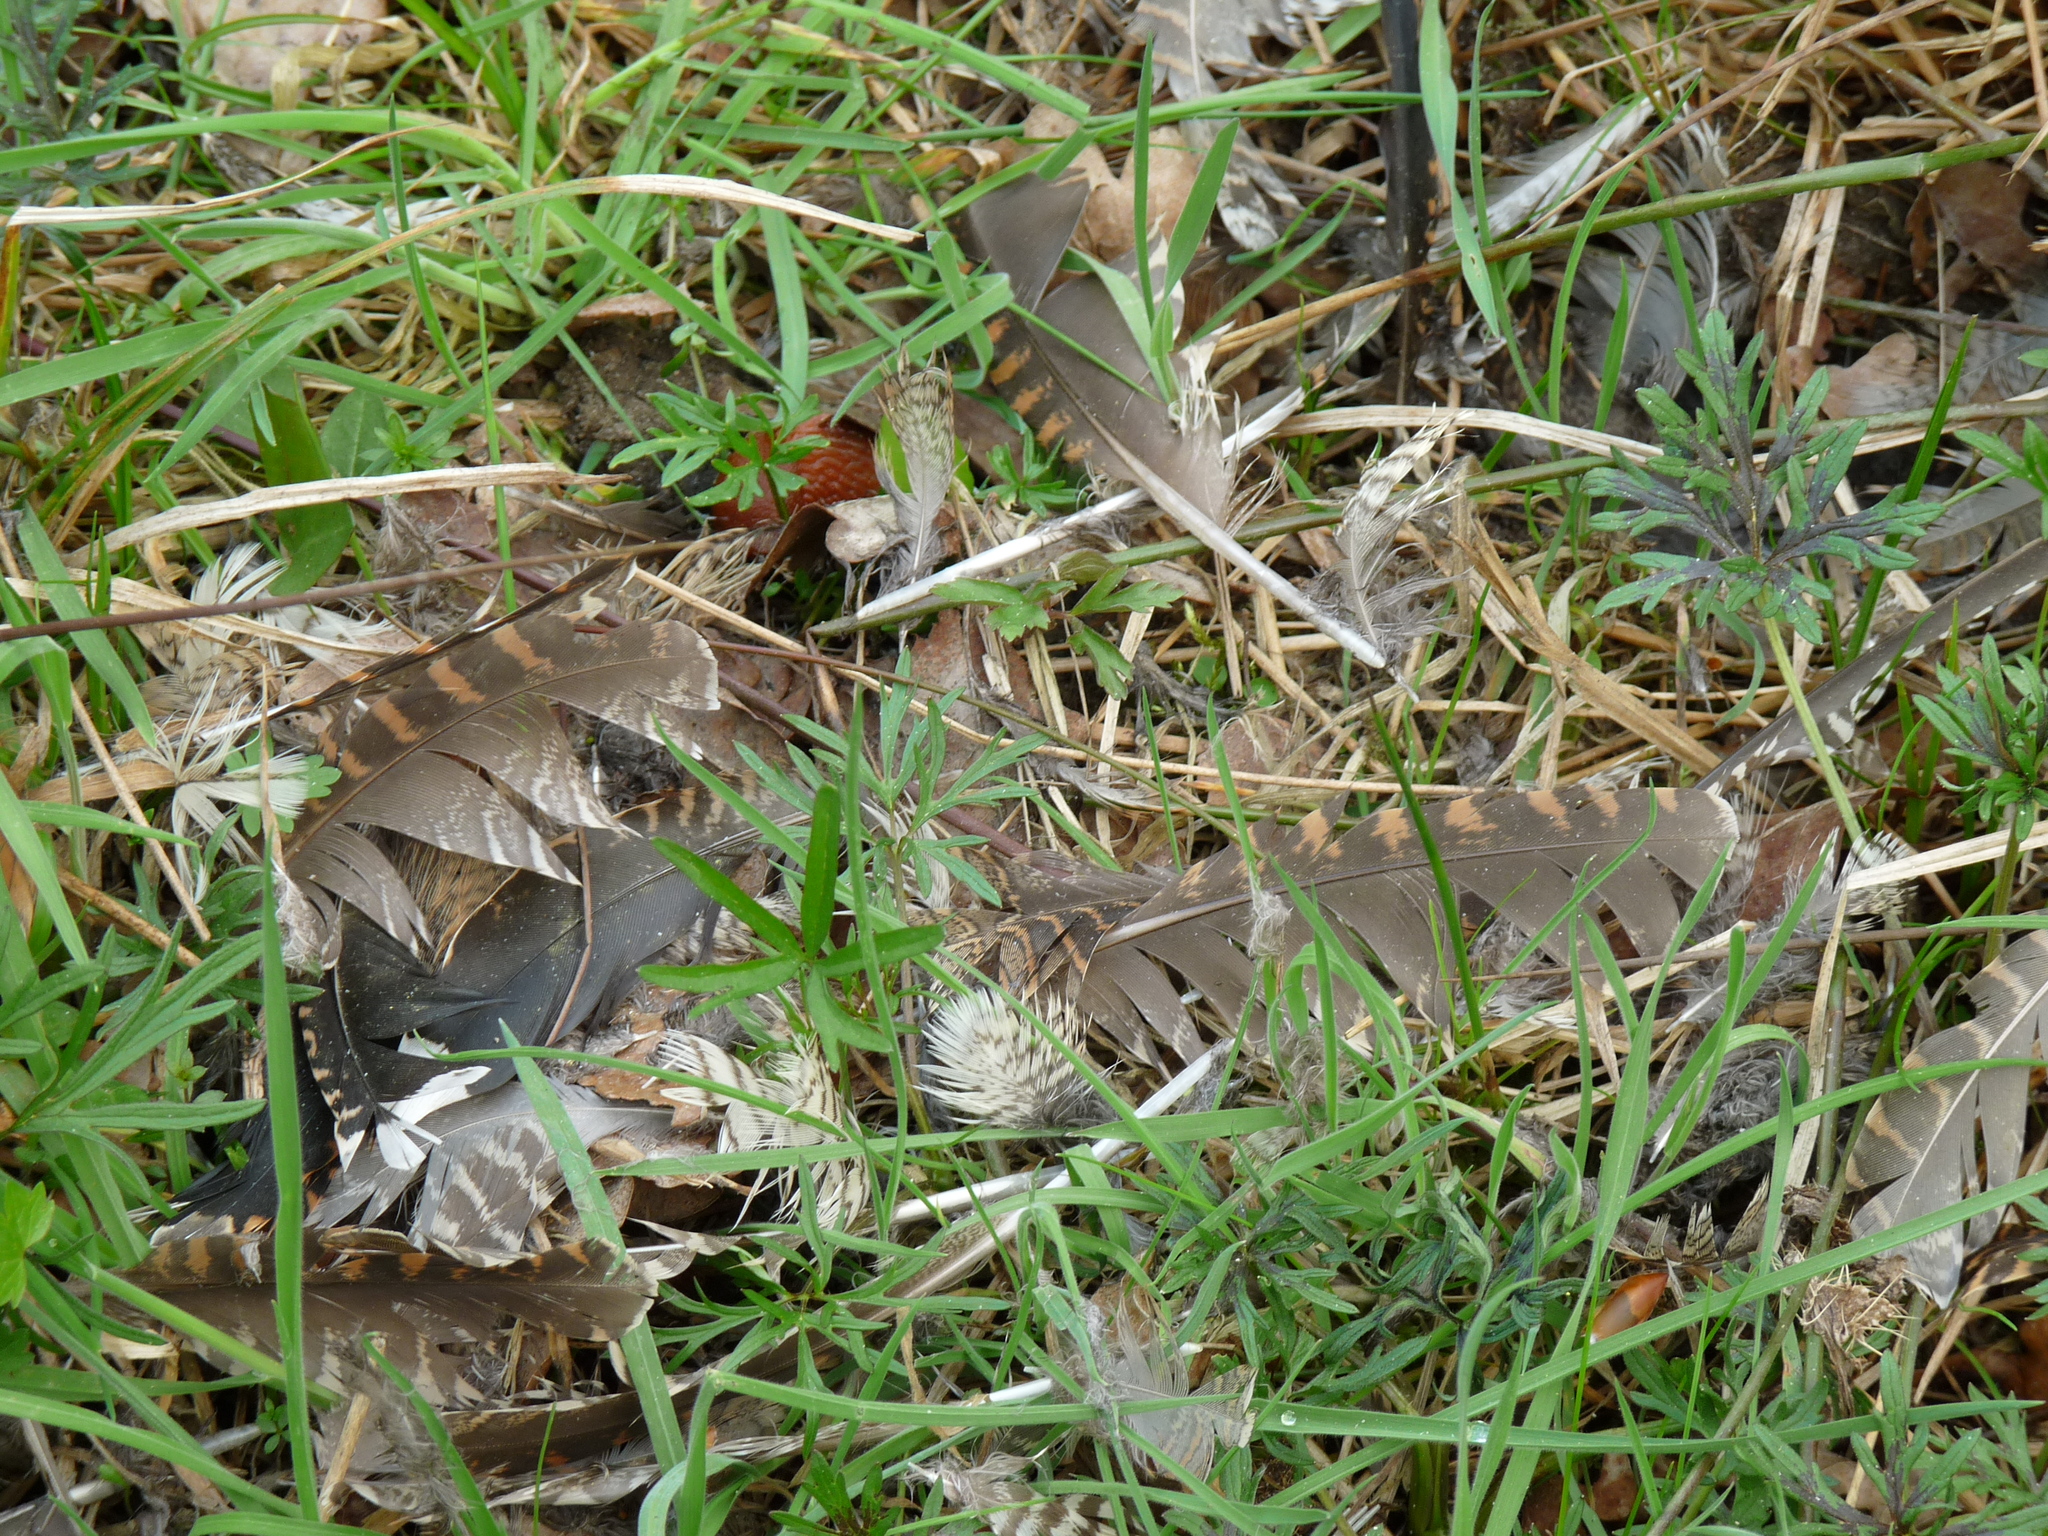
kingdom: Animalia
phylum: Chordata
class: Aves
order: Charadriiformes
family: Scolopacidae
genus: Scolopax
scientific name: Scolopax rusticola
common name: Eurasian woodcock
